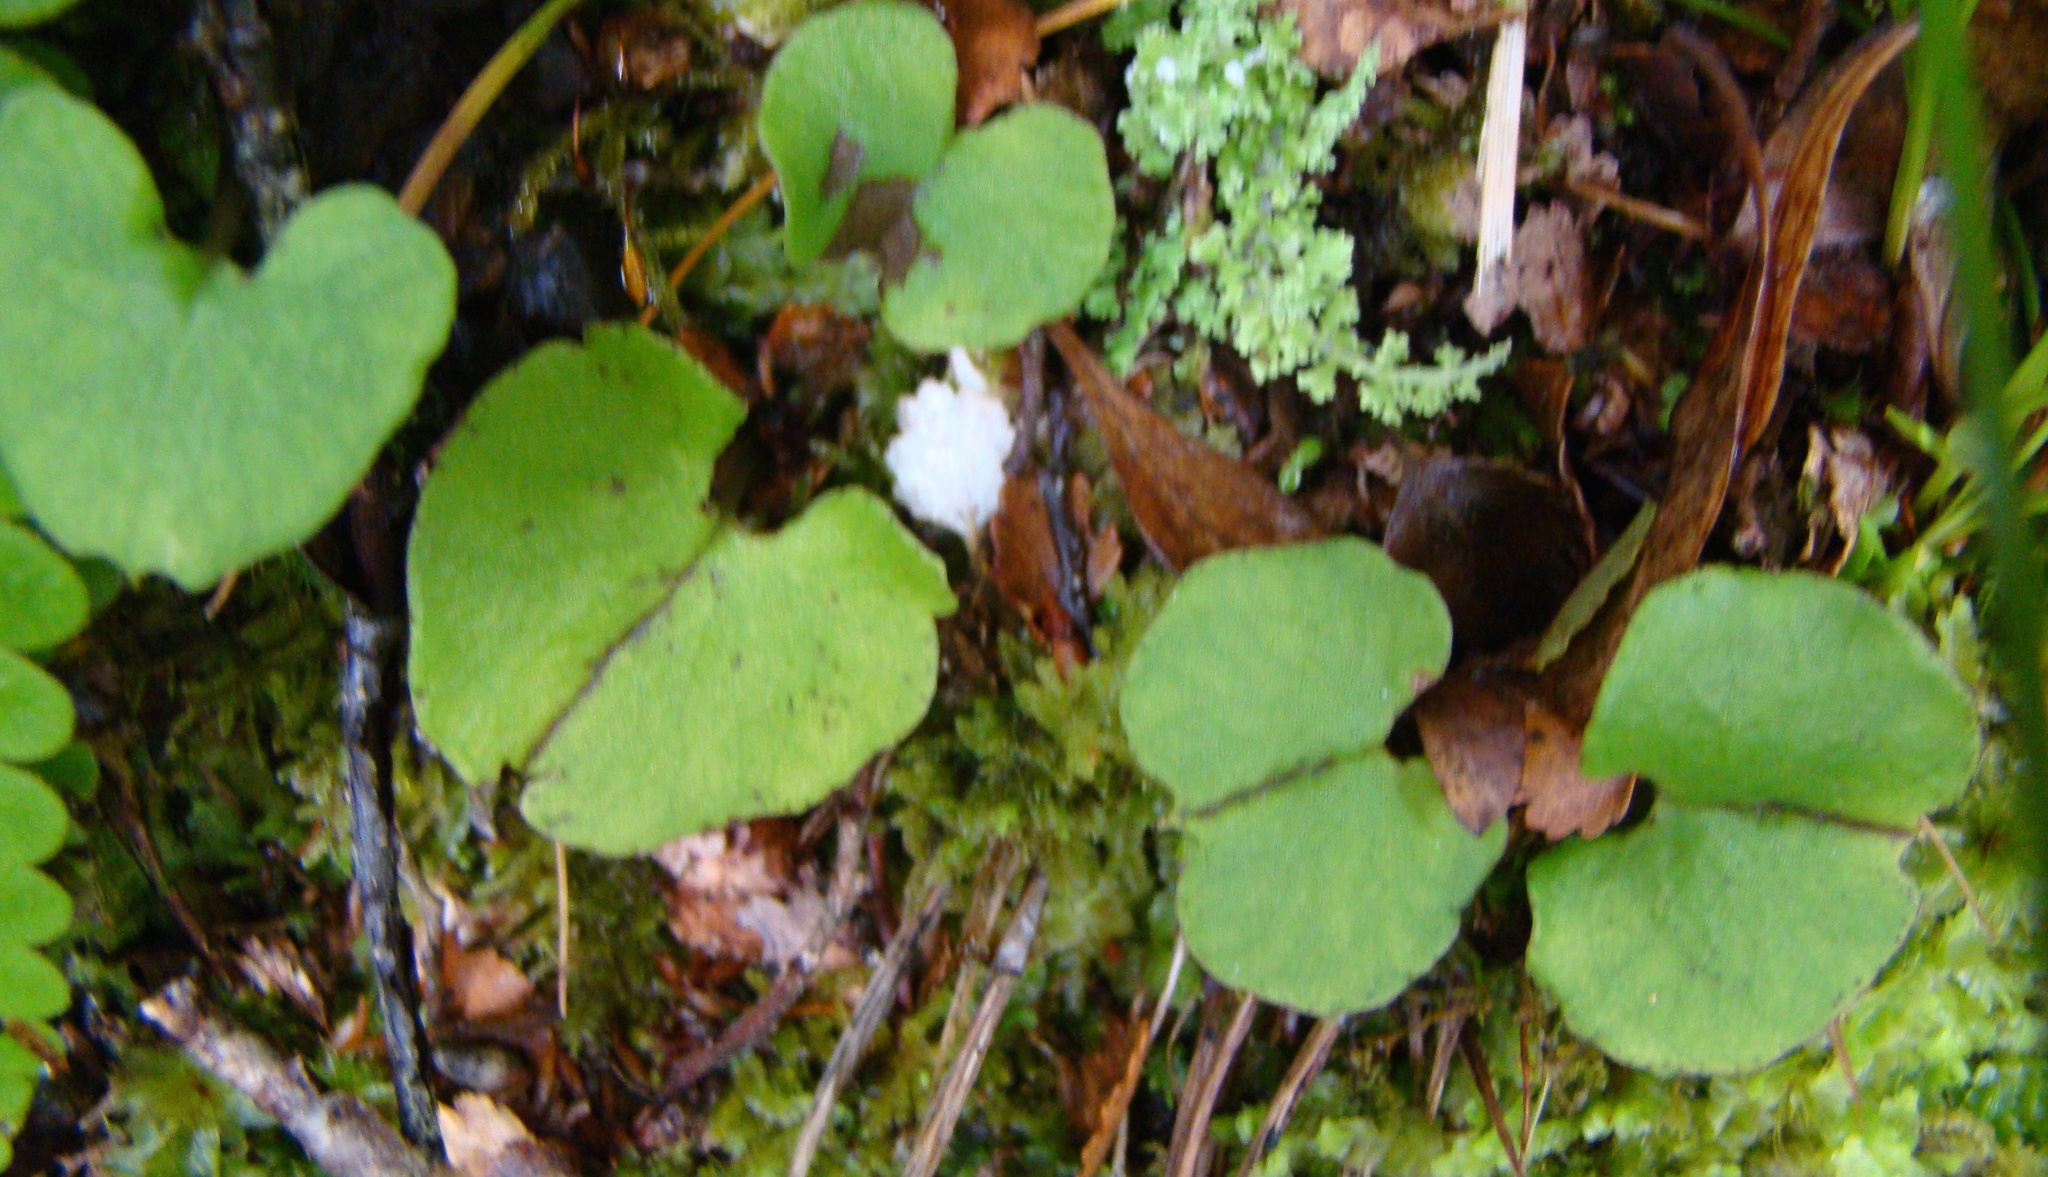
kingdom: Plantae
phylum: Tracheophyta
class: Liliopsida
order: Asparagales
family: Orchidaceae
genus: Corybas
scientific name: Corybas trilobus
